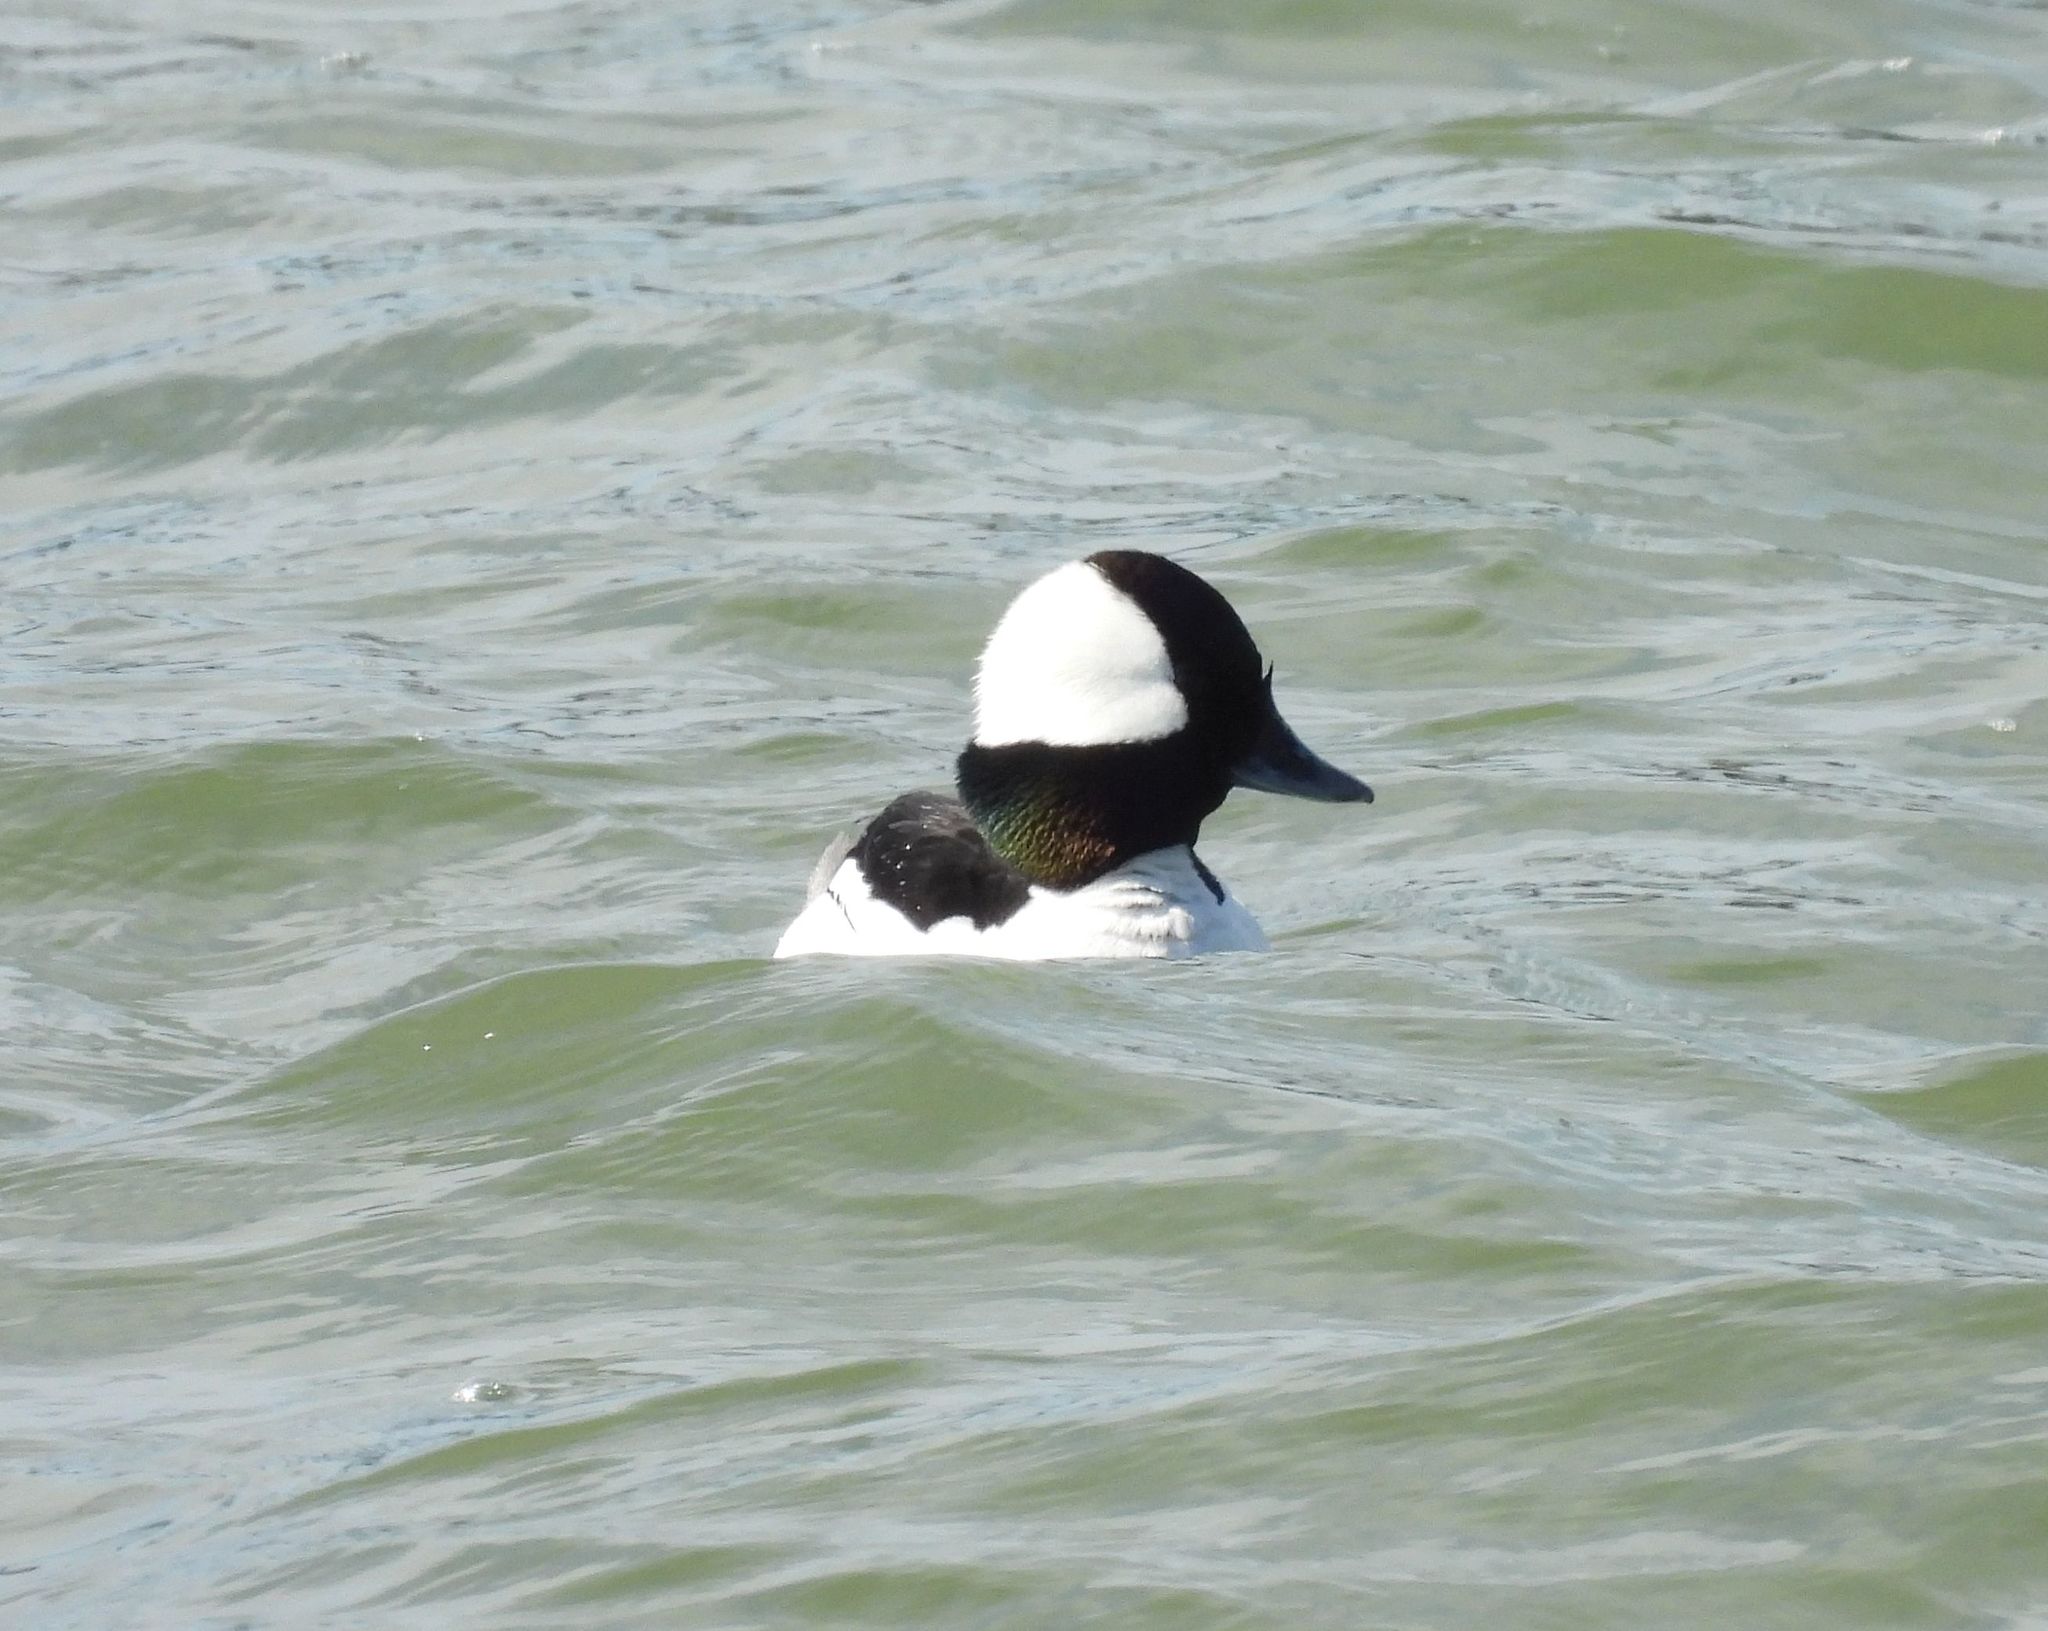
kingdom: Animalia
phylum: Chordata
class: Aves
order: Anseriformes
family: Anatidae
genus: Bucephala
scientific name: Bucephala albeola
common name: Bufflehead
